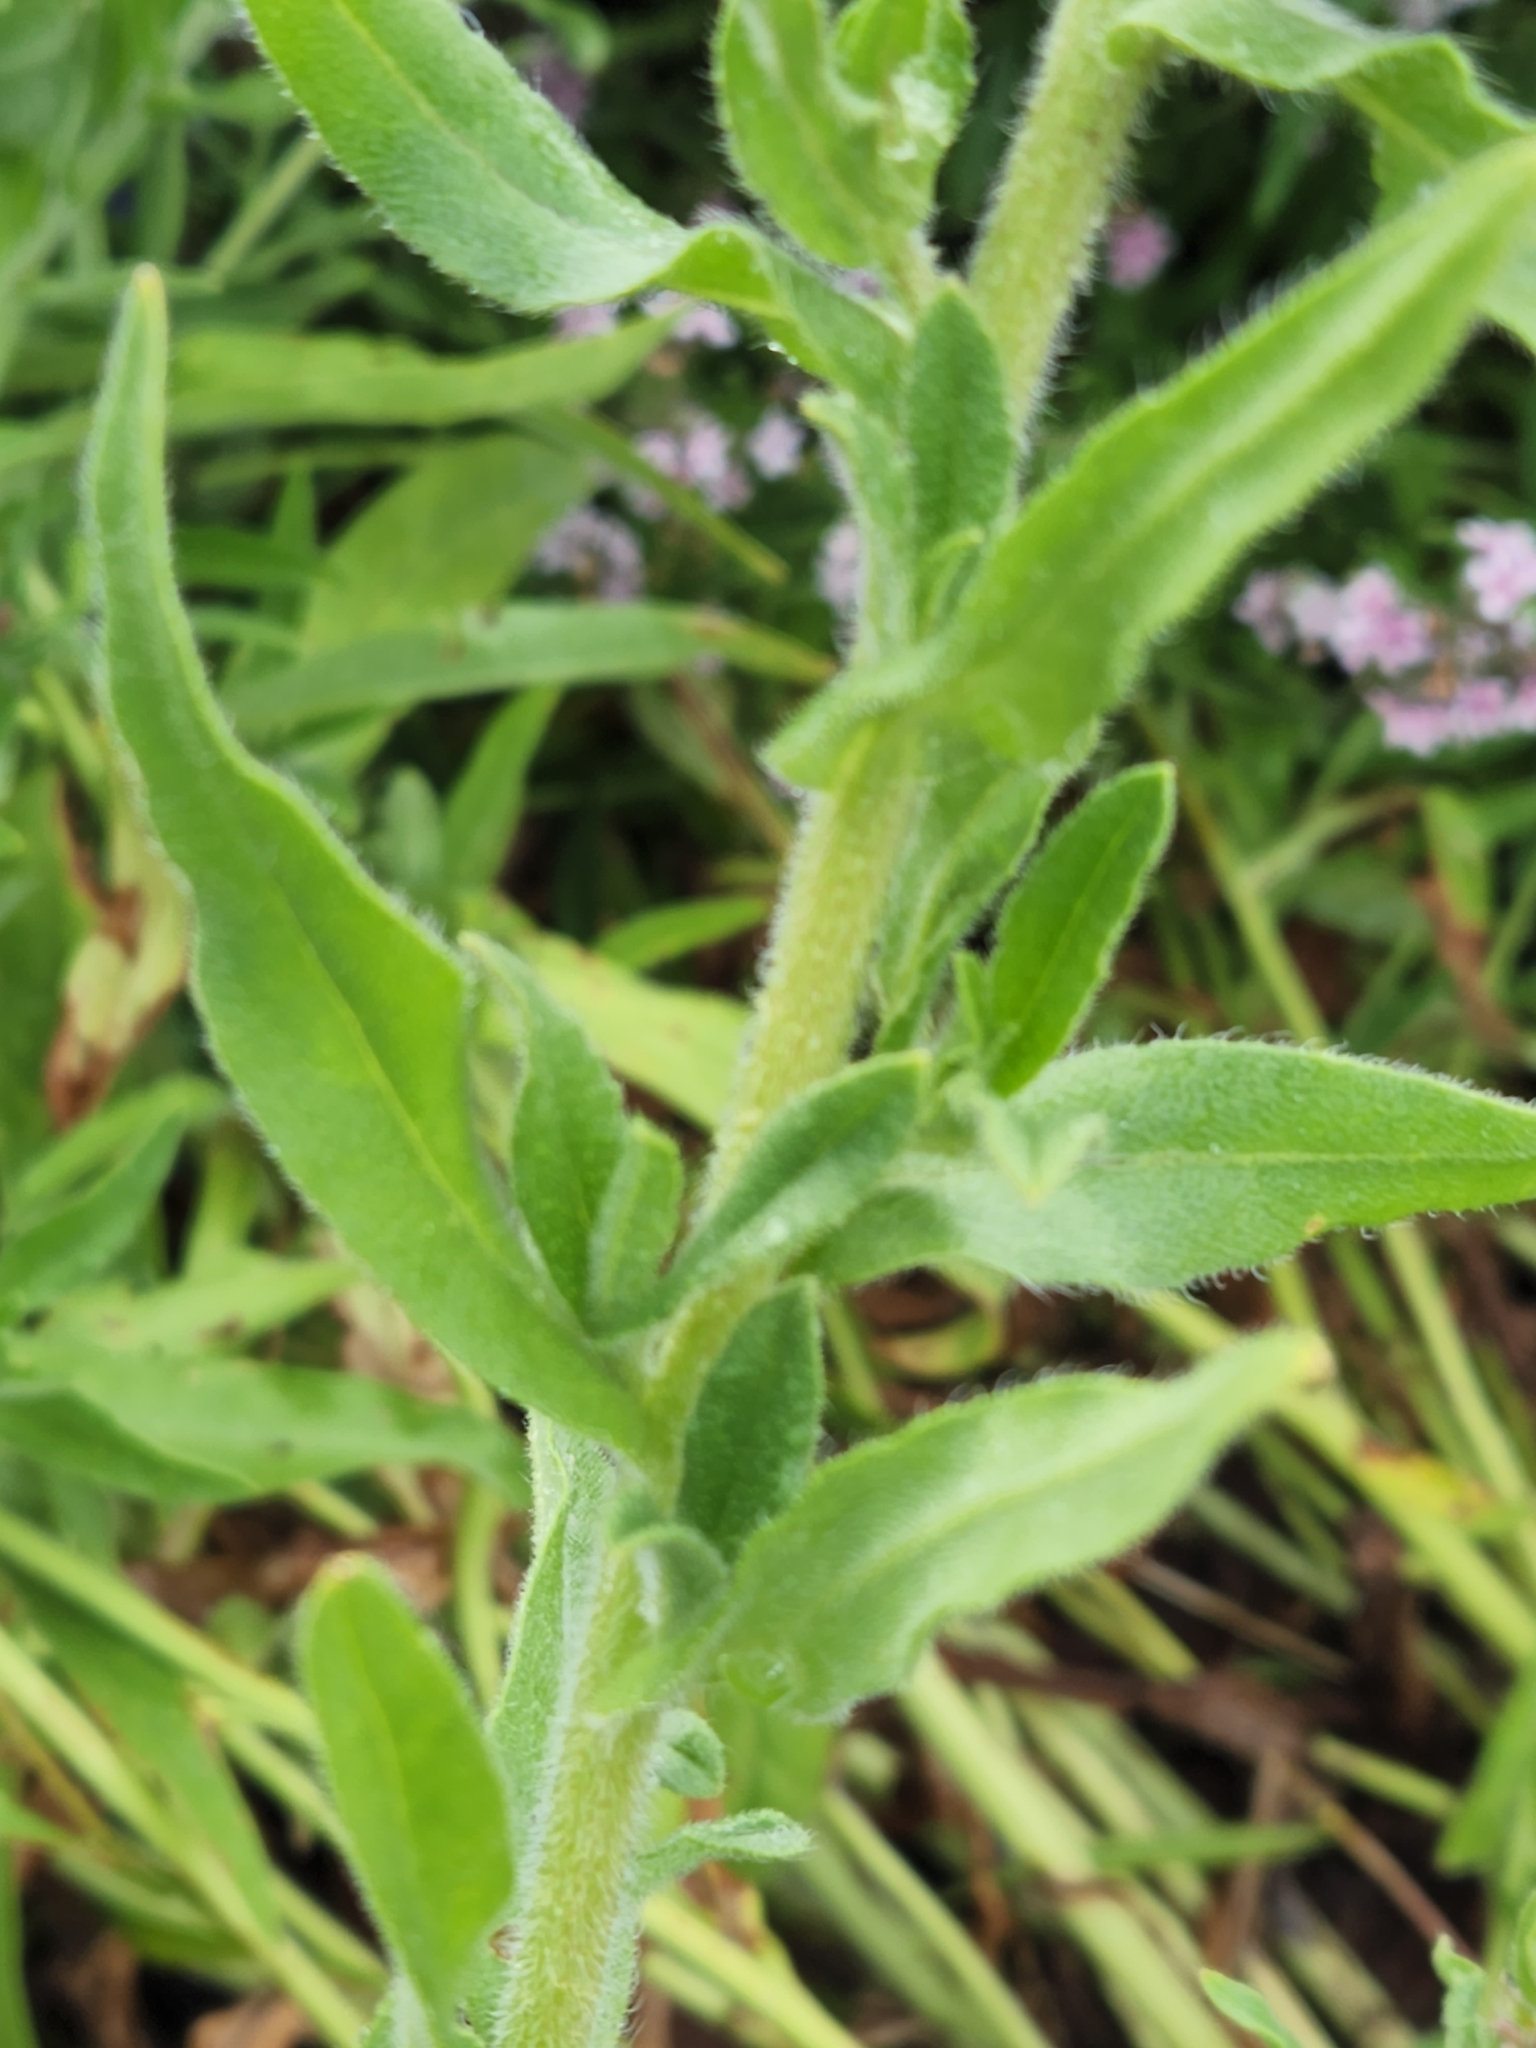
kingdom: Plantae
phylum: Tracheophyta
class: Magnoliopsida
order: Boraginales
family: Boraginaceae
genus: Anchusa
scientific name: Anchusa officinalis
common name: Alkanet
